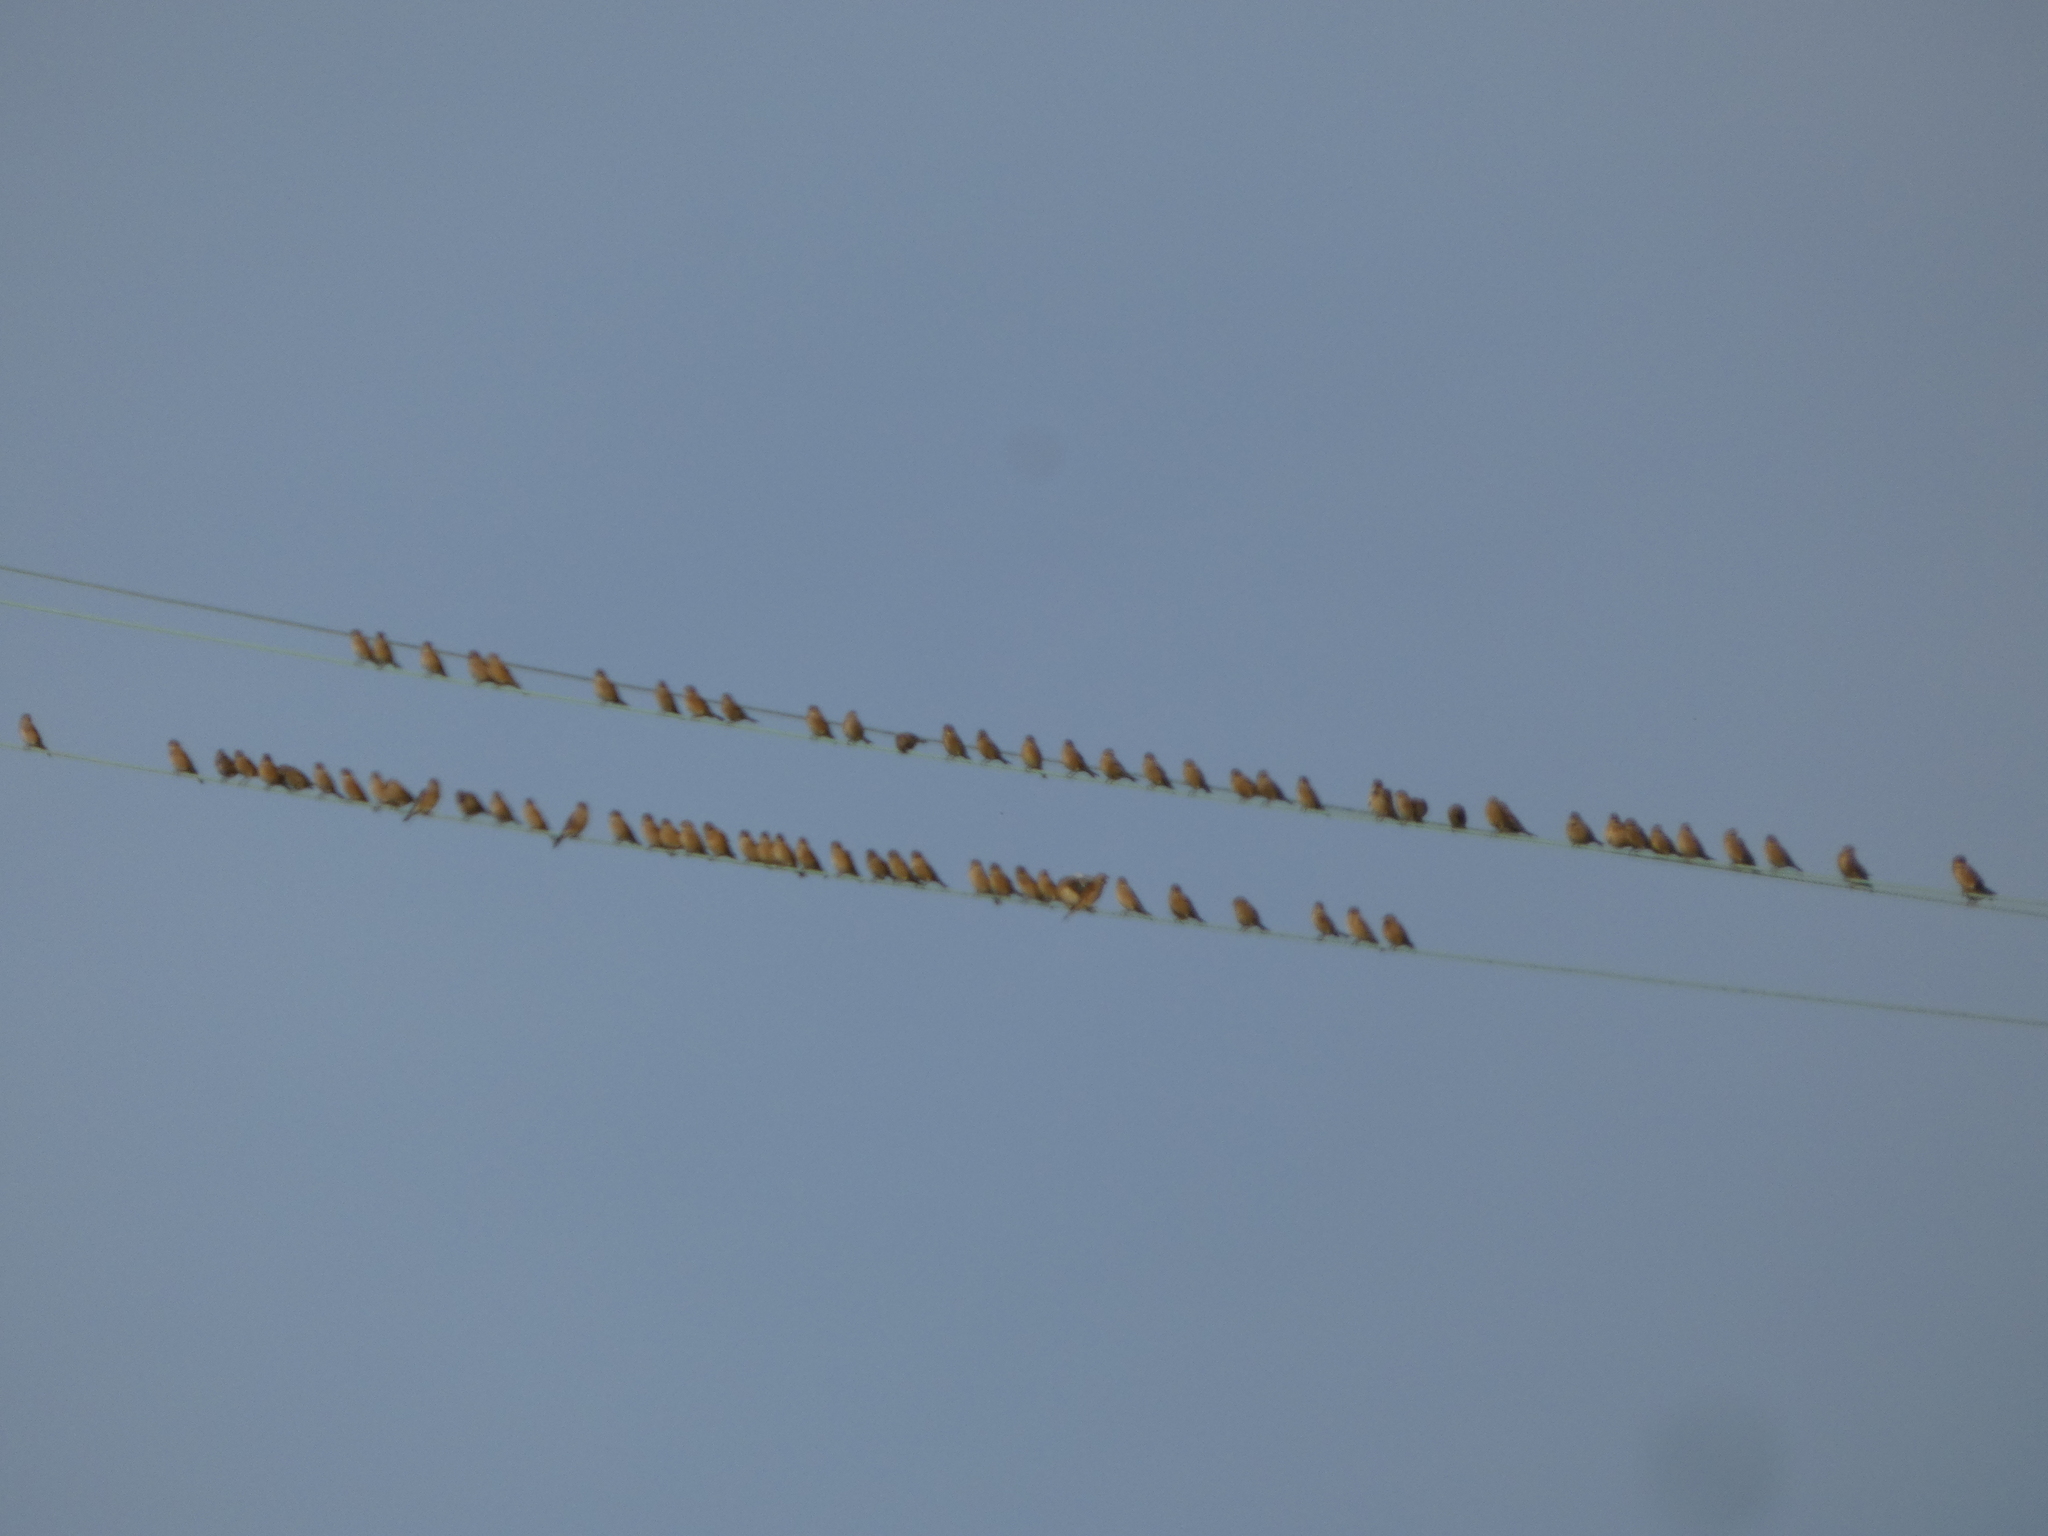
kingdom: Animalia
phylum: Chordata
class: Aves
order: Passeriformes
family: Fringillidae
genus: Linaria
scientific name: Linaria cannabina
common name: Common linnet
